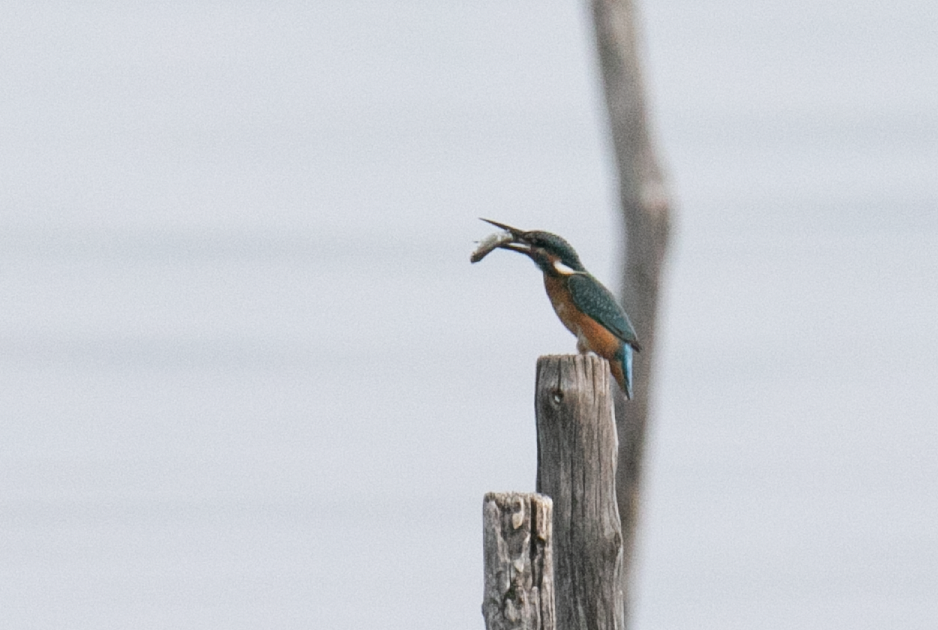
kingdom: Animalia
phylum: Chordata
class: Aves
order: Coraciiformes
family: Alcedinidae
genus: Alcedo
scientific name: Alcedo atthis
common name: Common kingfisher
